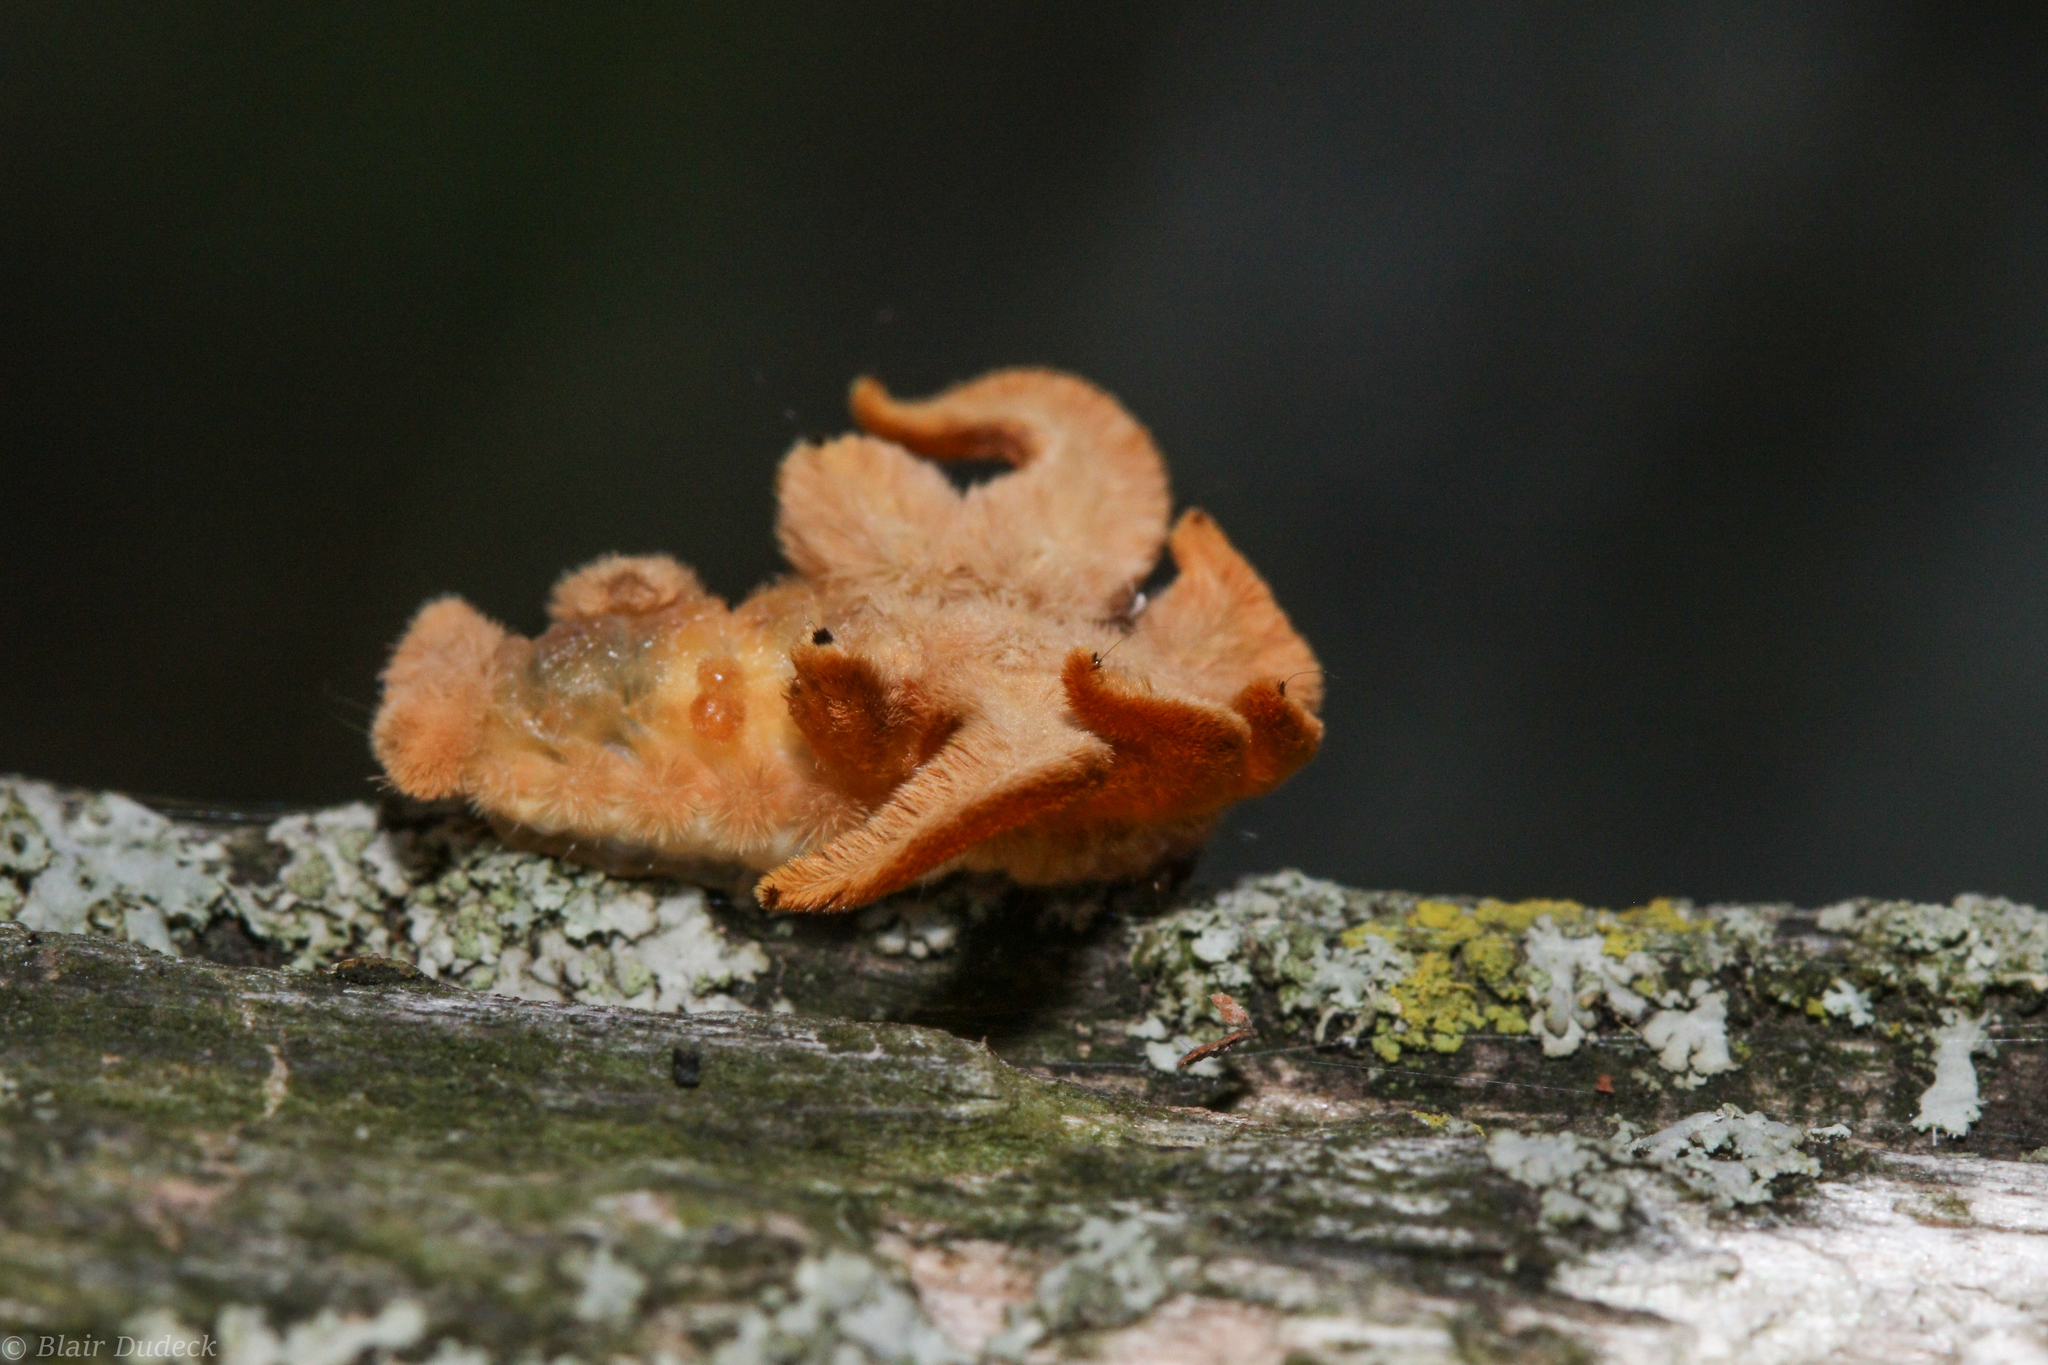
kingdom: Animalia
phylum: Arthropoda
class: Insecta
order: Lepidoptera
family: Limacodidae
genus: Phobetron
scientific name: Phobetron pithecium
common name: Hag moth
